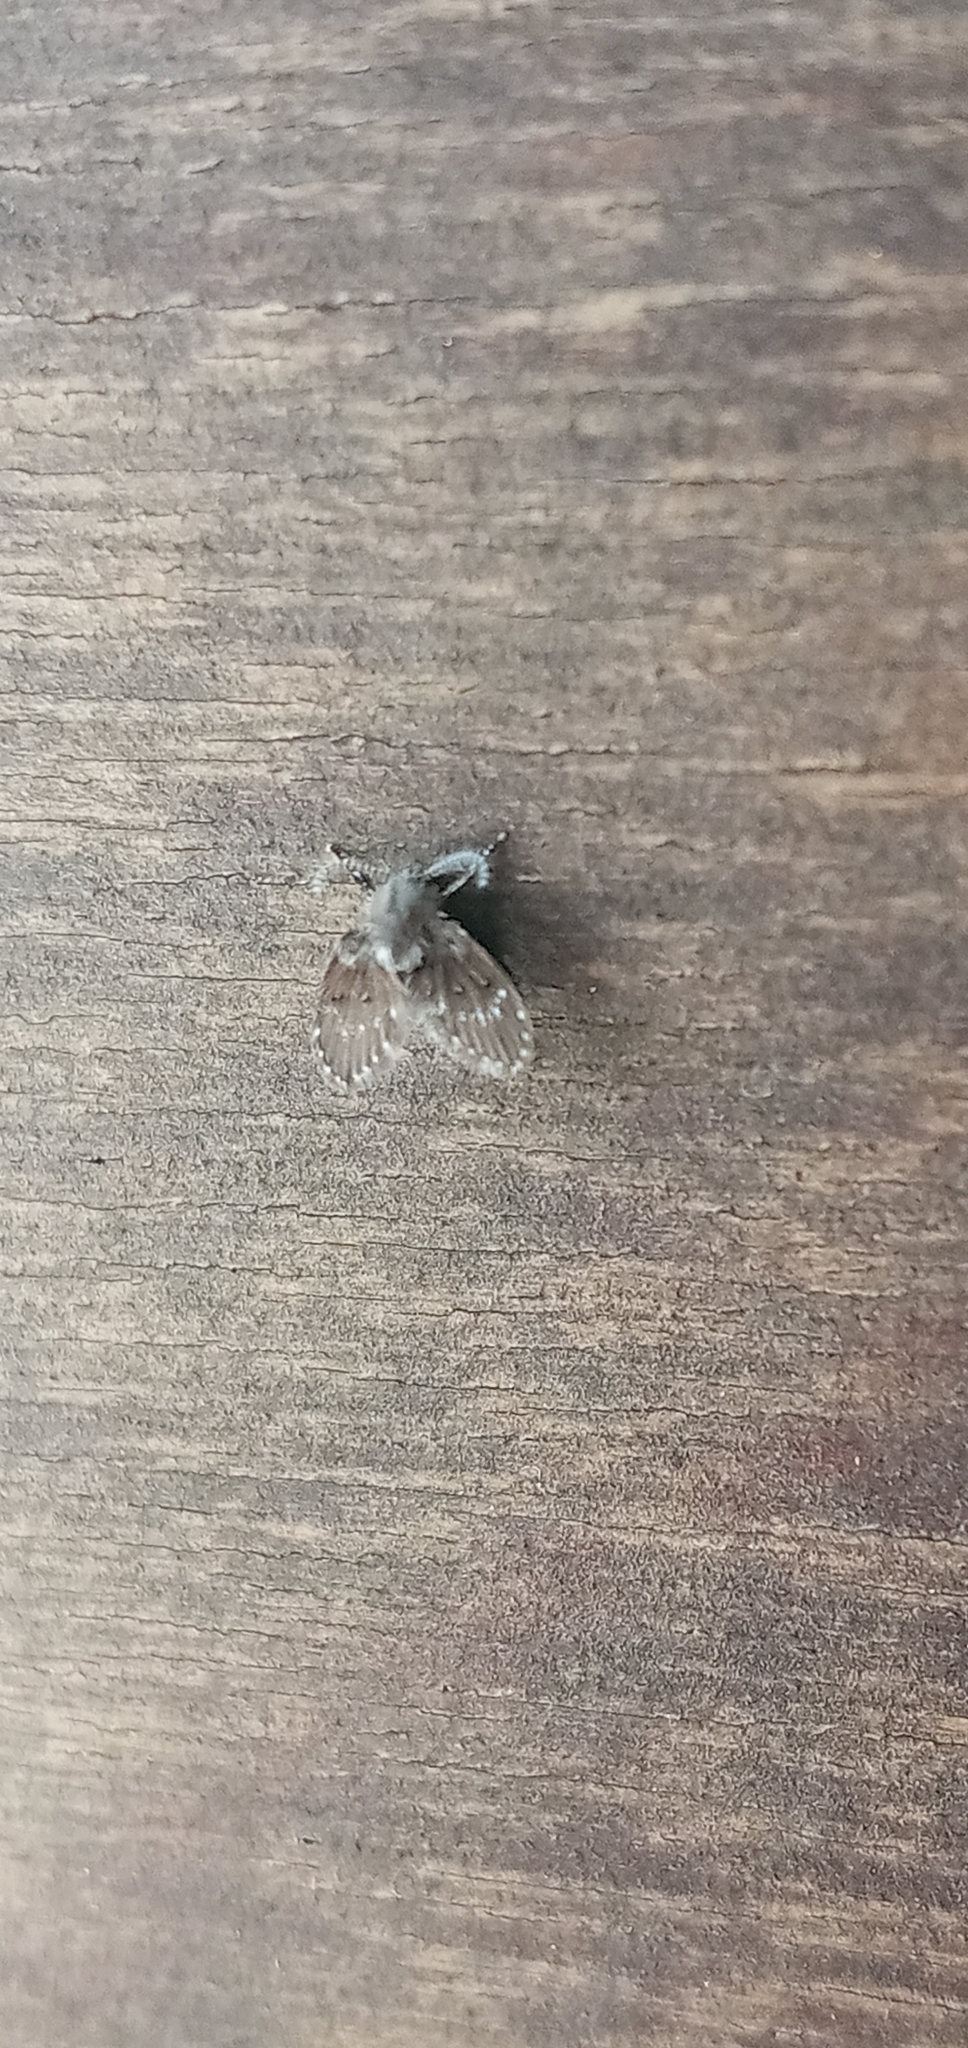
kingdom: Animalia
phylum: Arthropoda
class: Insecta
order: Diptera
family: Psychodidae
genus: Clogmia
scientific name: Clogmia albipunctatus
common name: White-spotted moth fly
